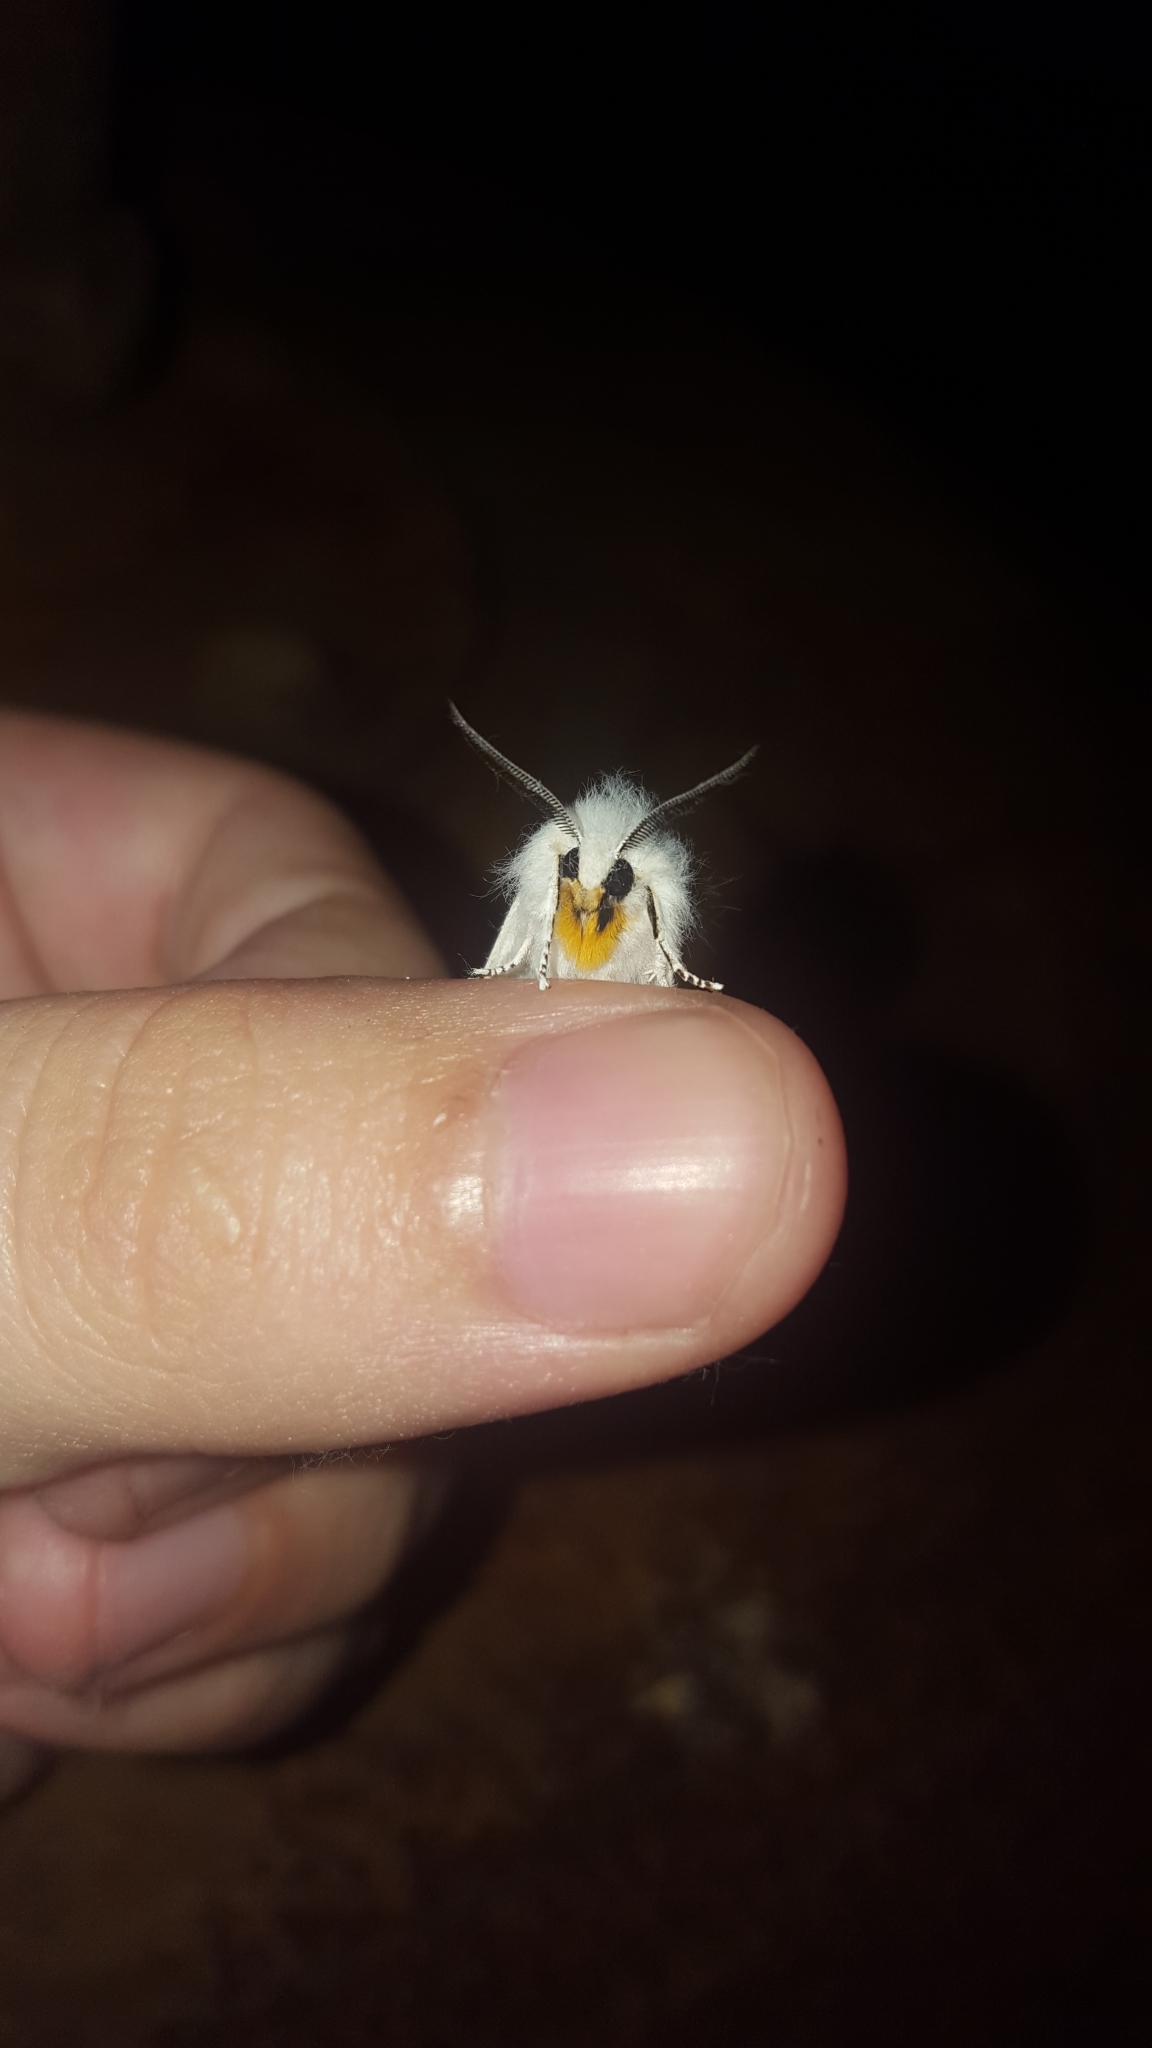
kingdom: Animalia
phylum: Arthropoda
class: Insecta
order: Lepidoptera
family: Erebidae
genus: Spilosoma
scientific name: Spilosoma virginica
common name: Virginia tiger moth
